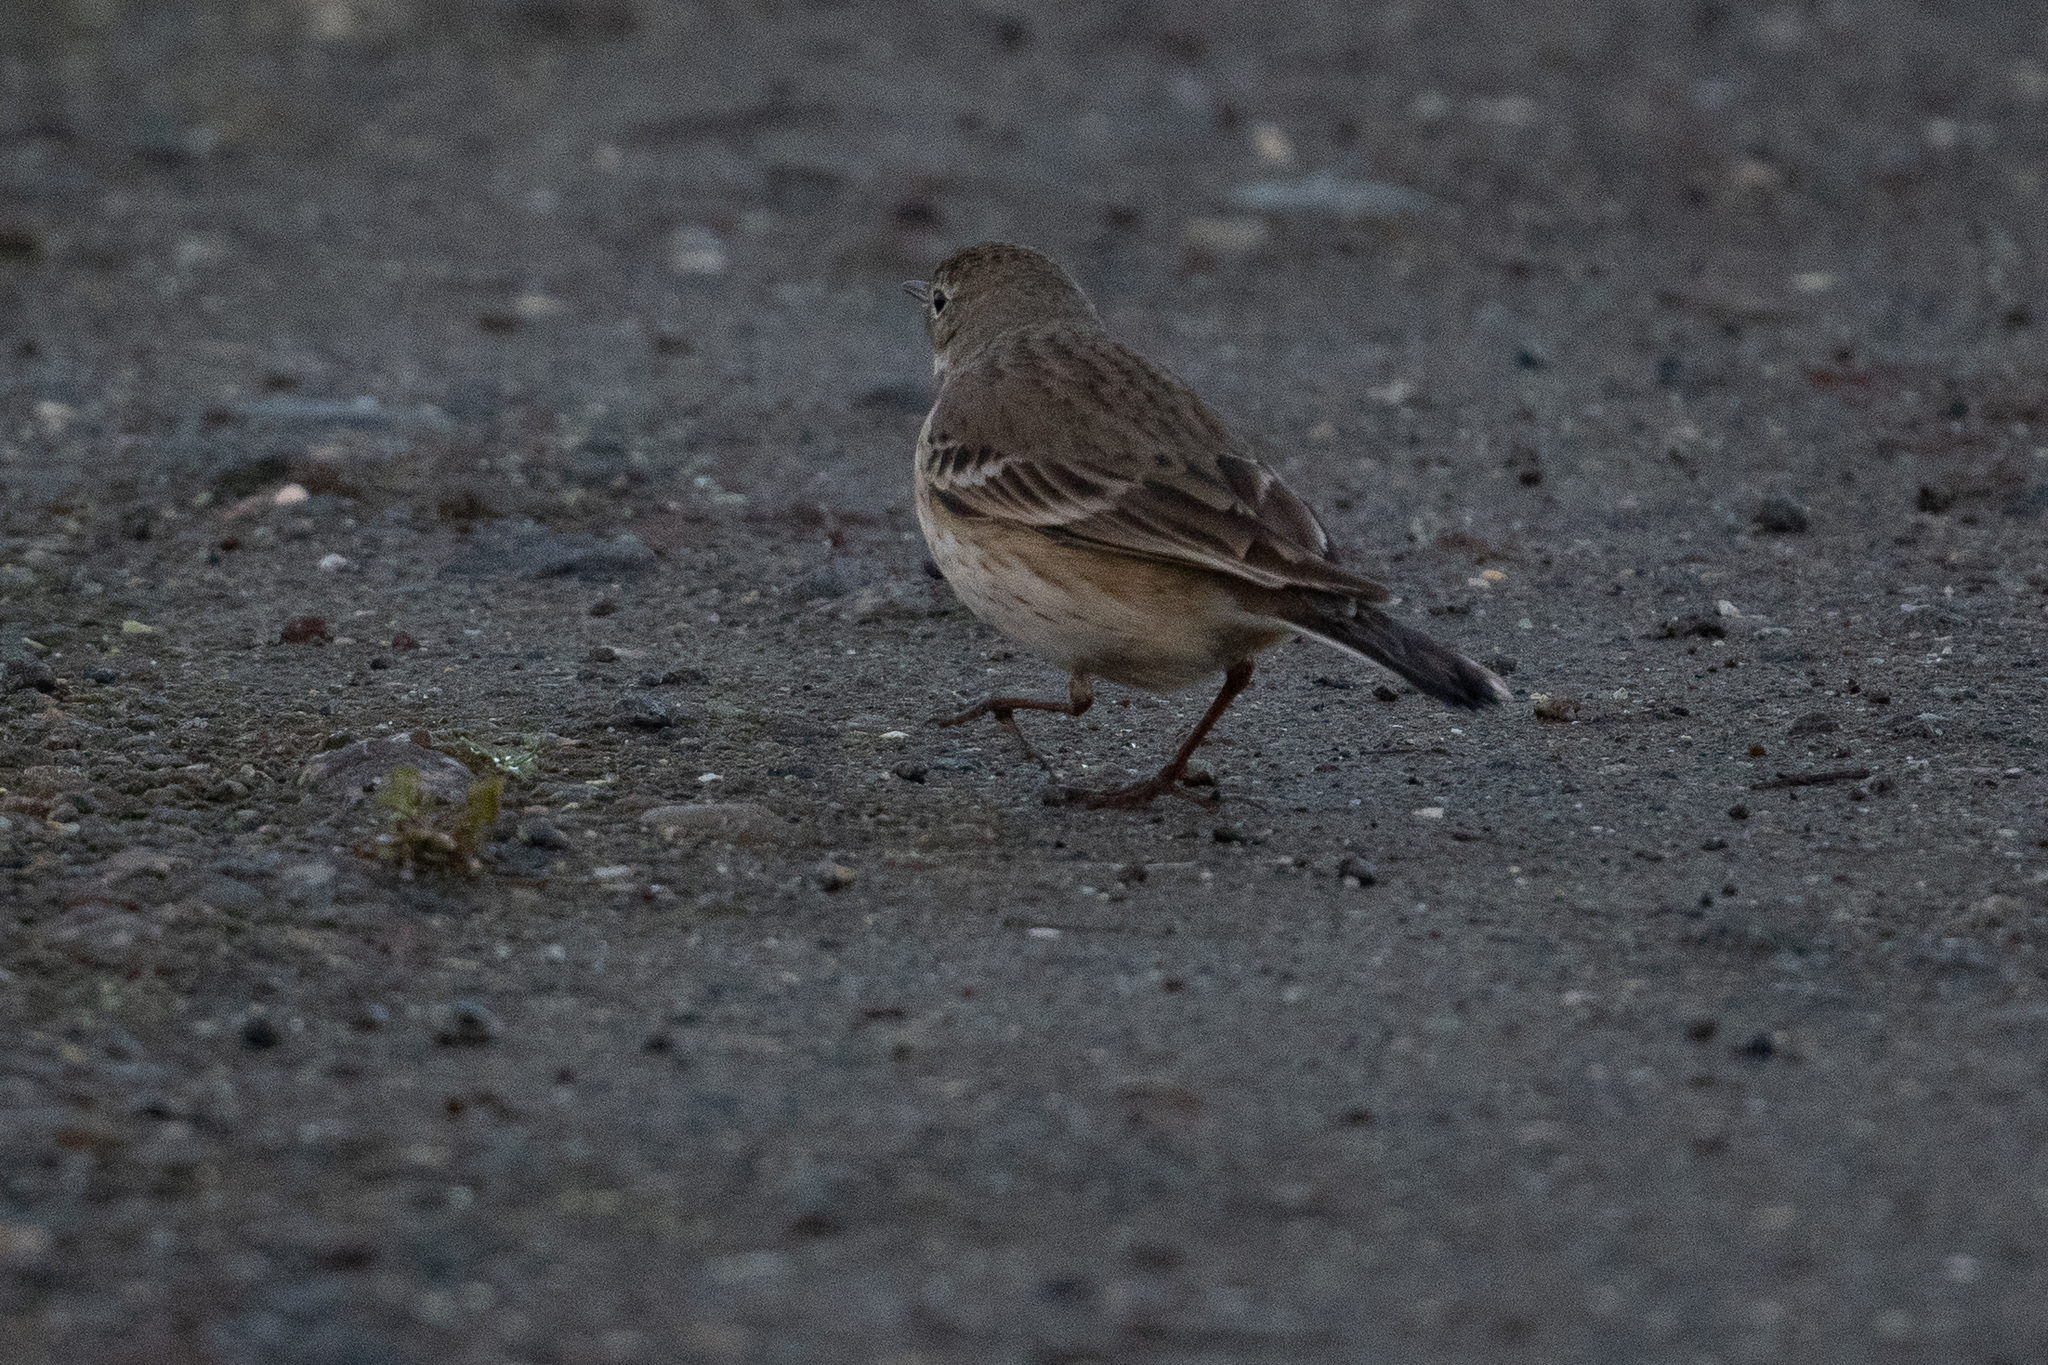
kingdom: Animalia
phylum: Chordata
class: Aves
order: Passeriformes
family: Motacillidae
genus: Anthus
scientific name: Anthus rubescens
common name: Buff-bellied pipit
